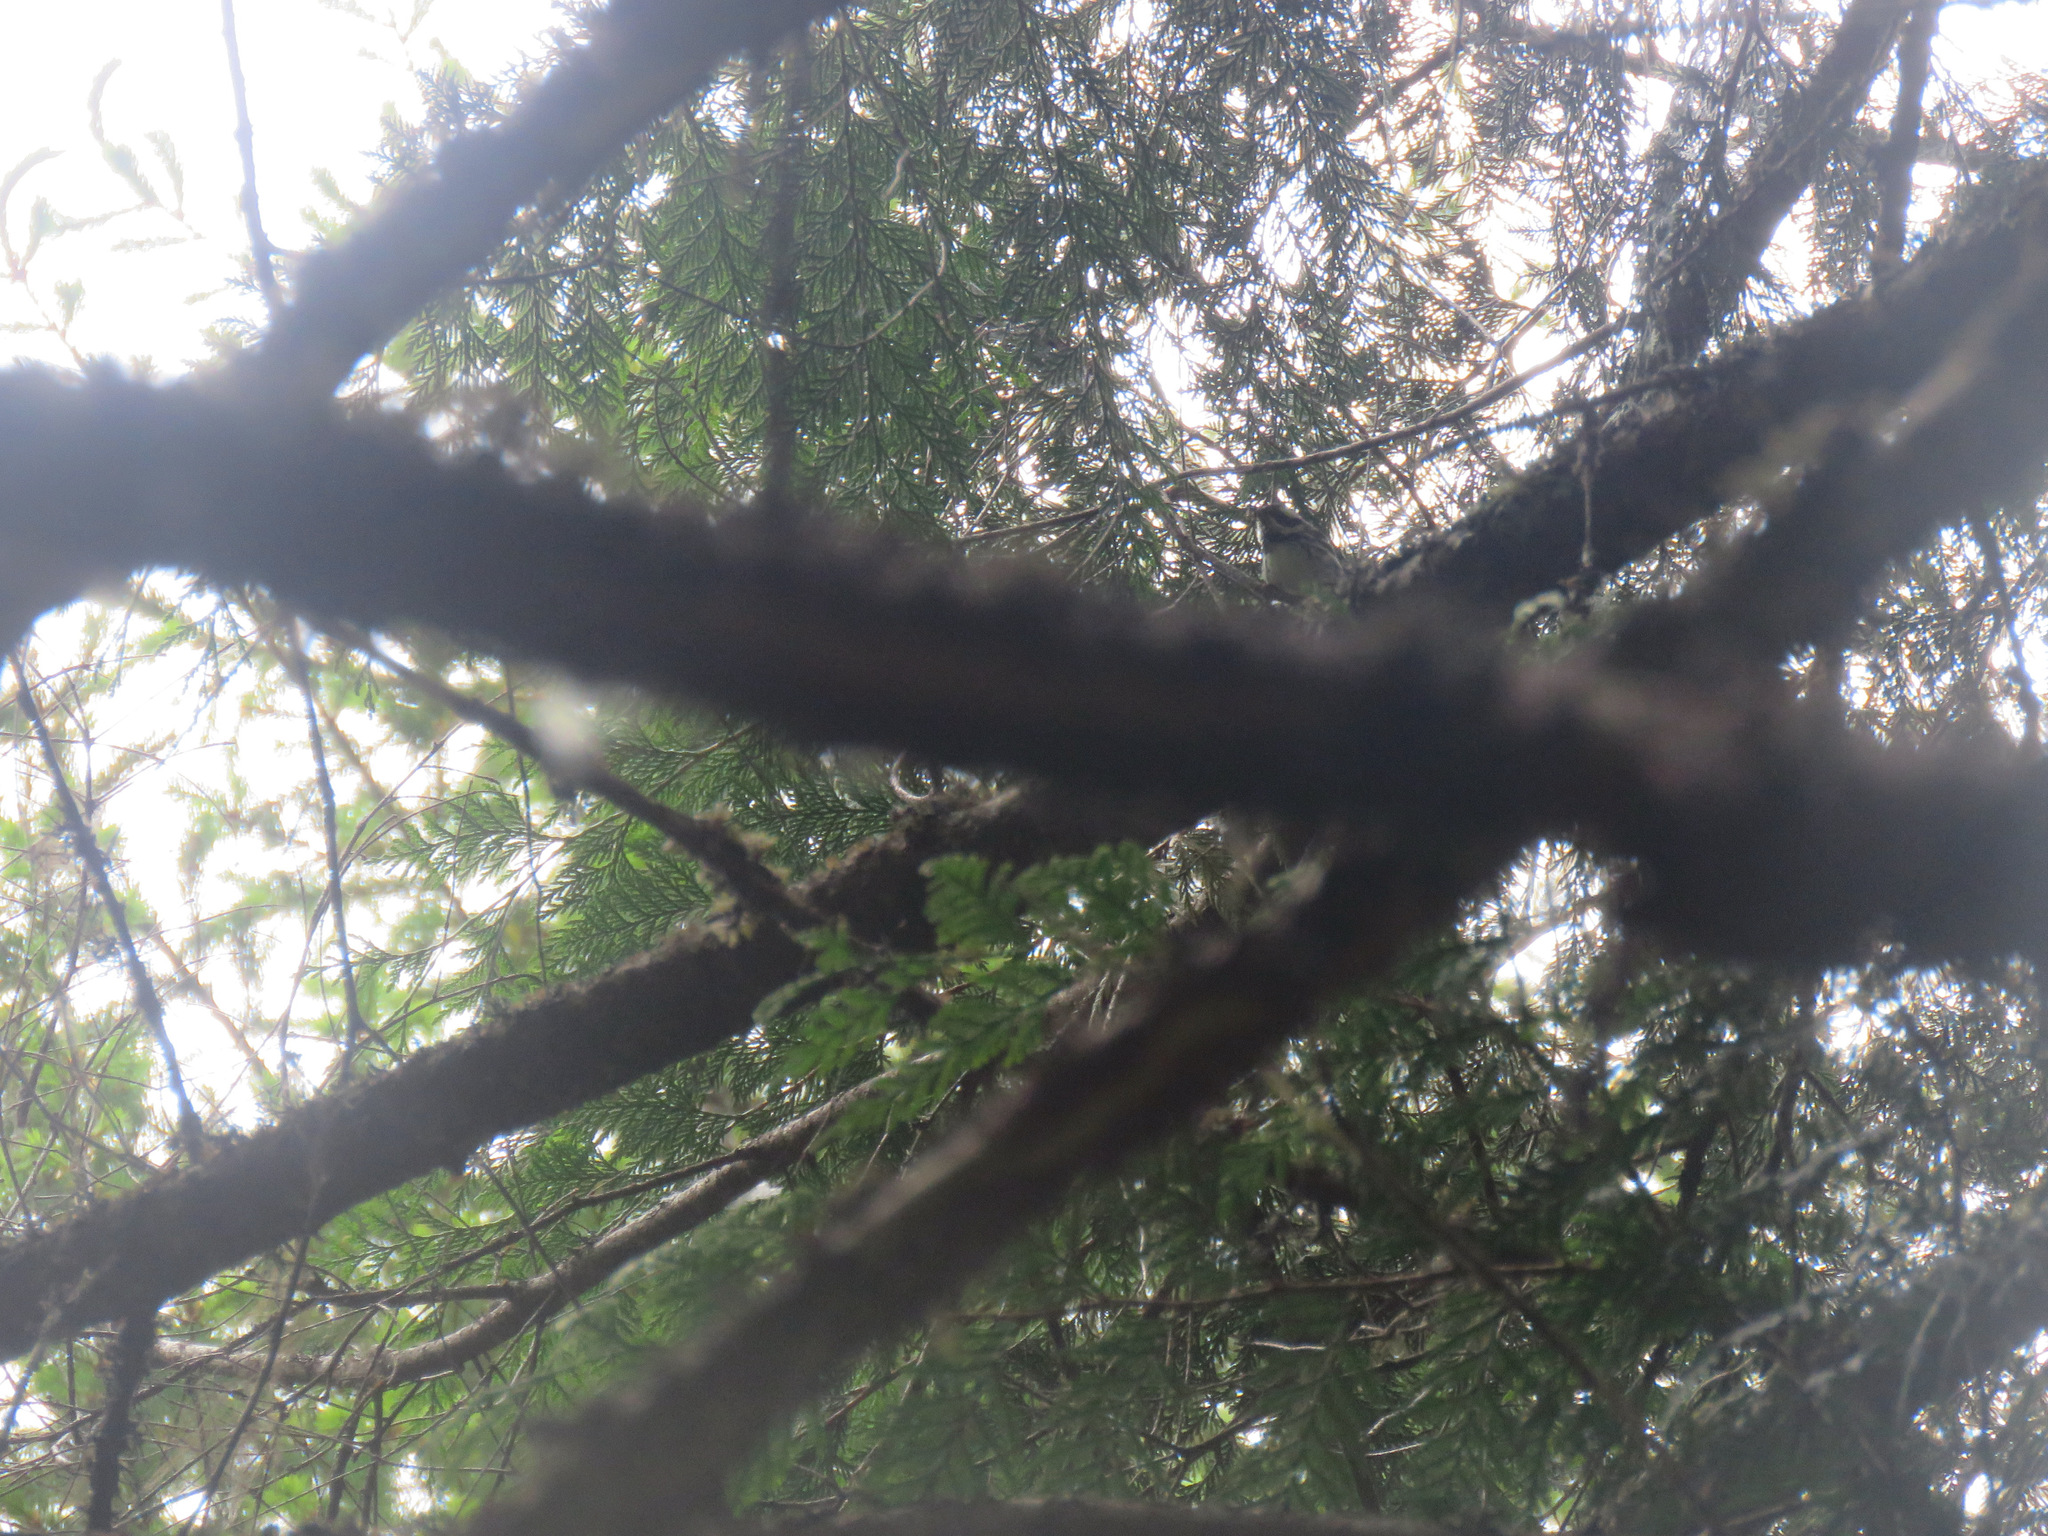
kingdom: Animalia
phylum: Chordata
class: Aves
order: Passeriformes
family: Parulidae
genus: Setophaga
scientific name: Setophaga nigrescens
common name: Black-throated gray warbler
